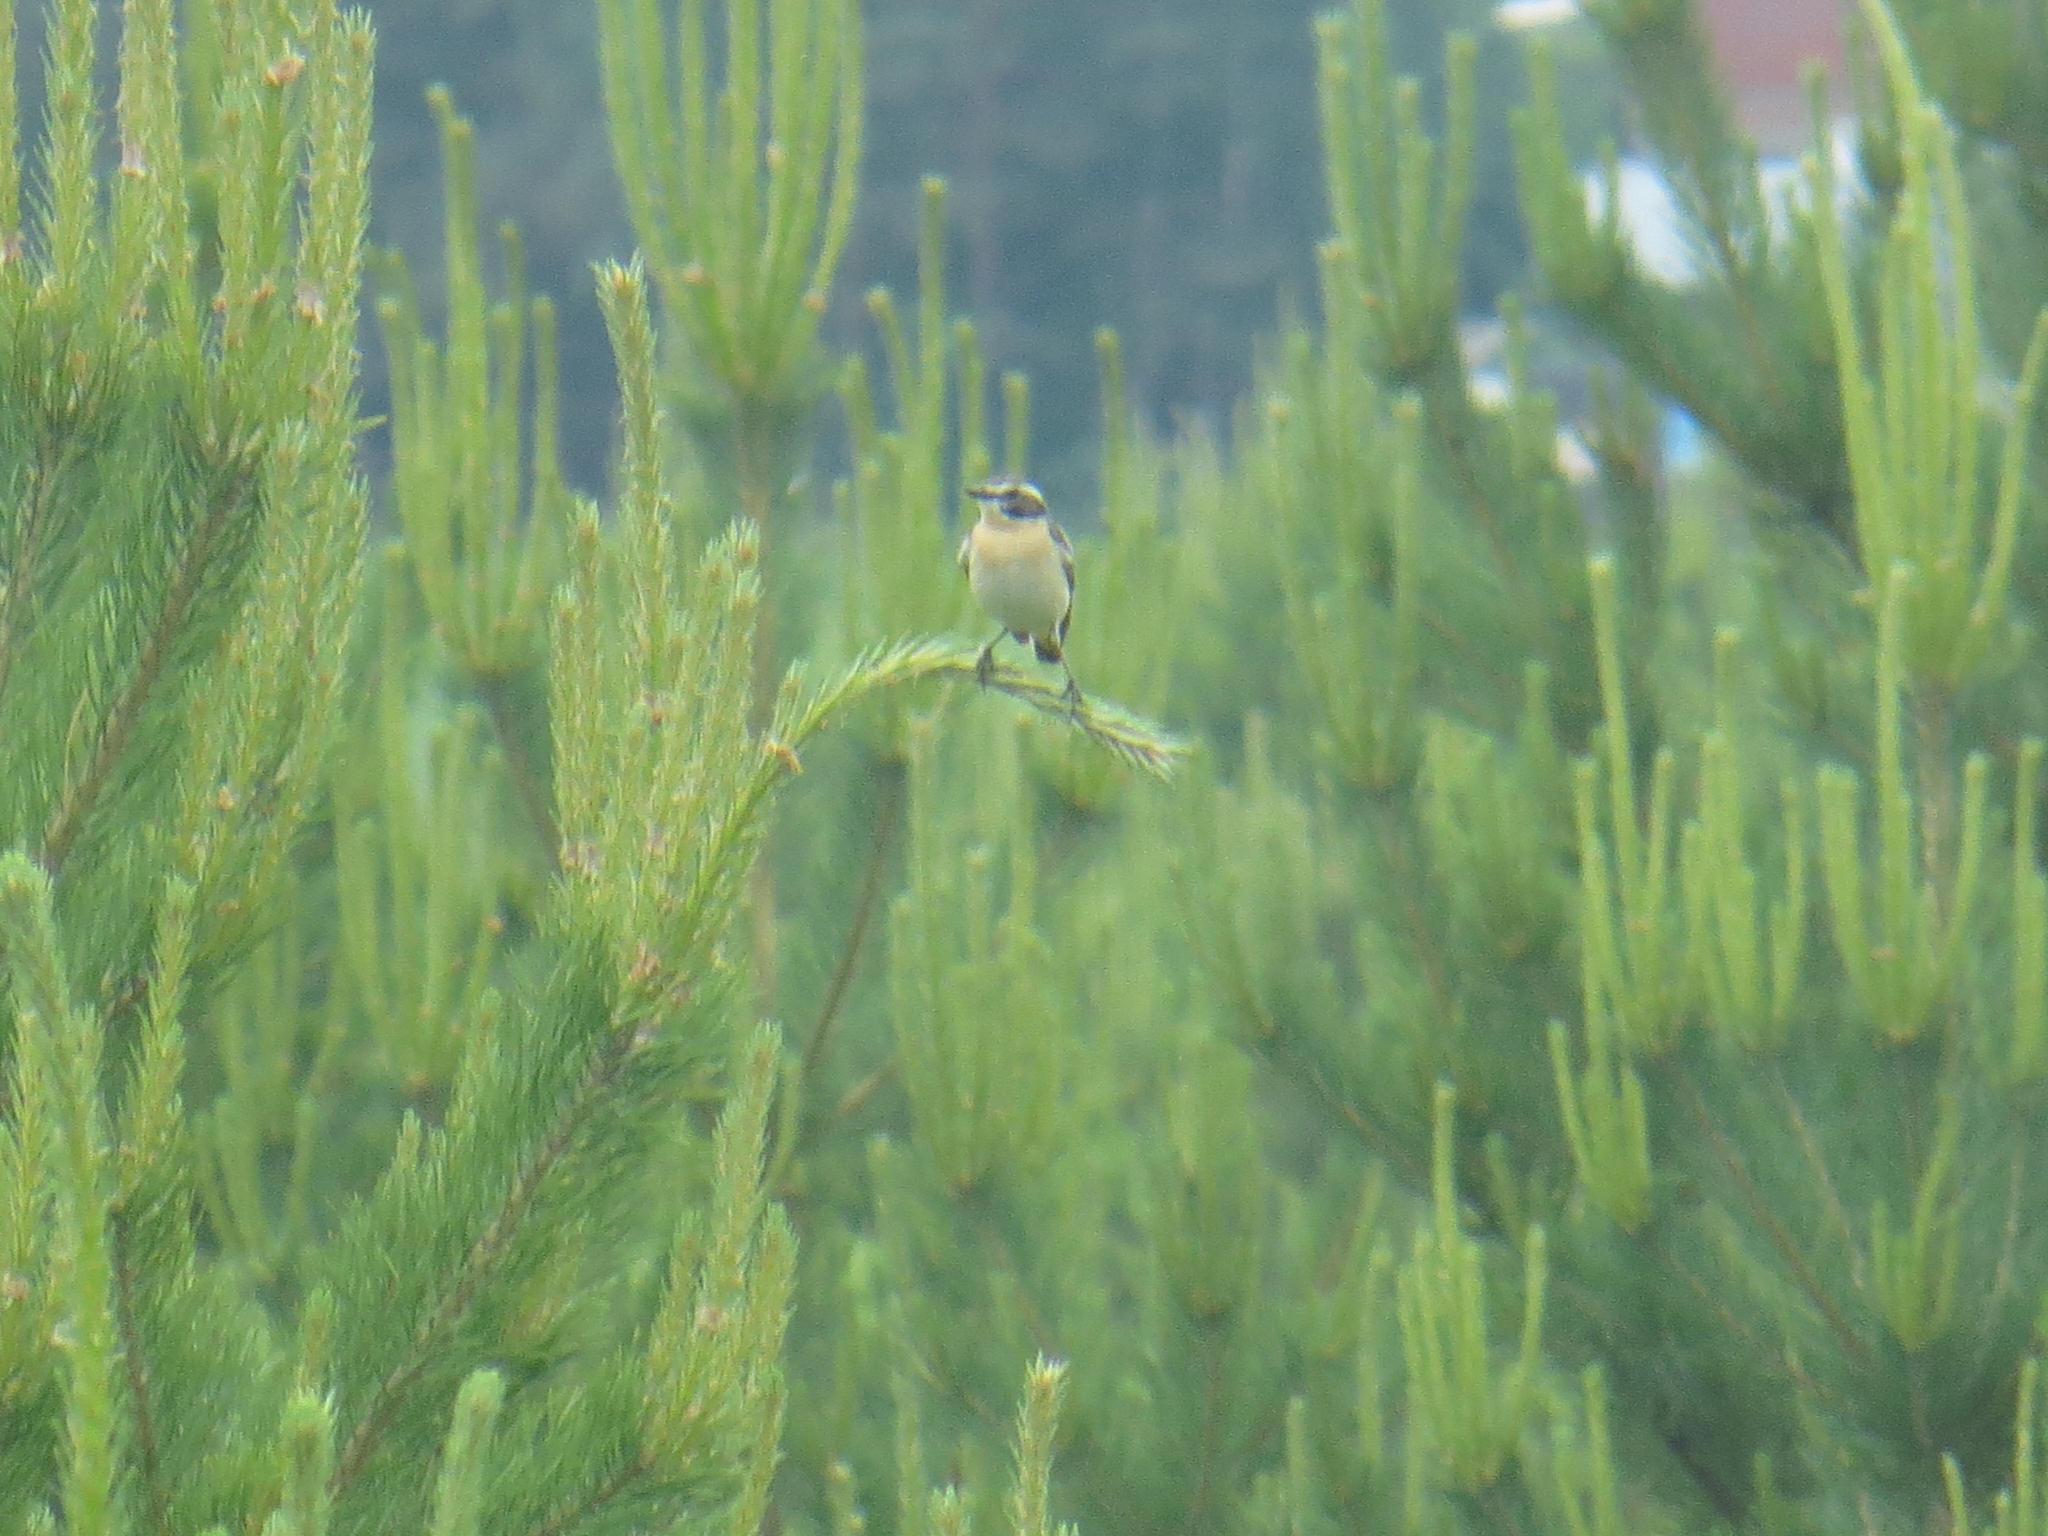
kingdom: Animalia
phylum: Chordata
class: Aves
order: Passeriformes
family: Muscicapidae
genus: Saxicola
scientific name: Saxicola rubetra
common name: Whinchat
